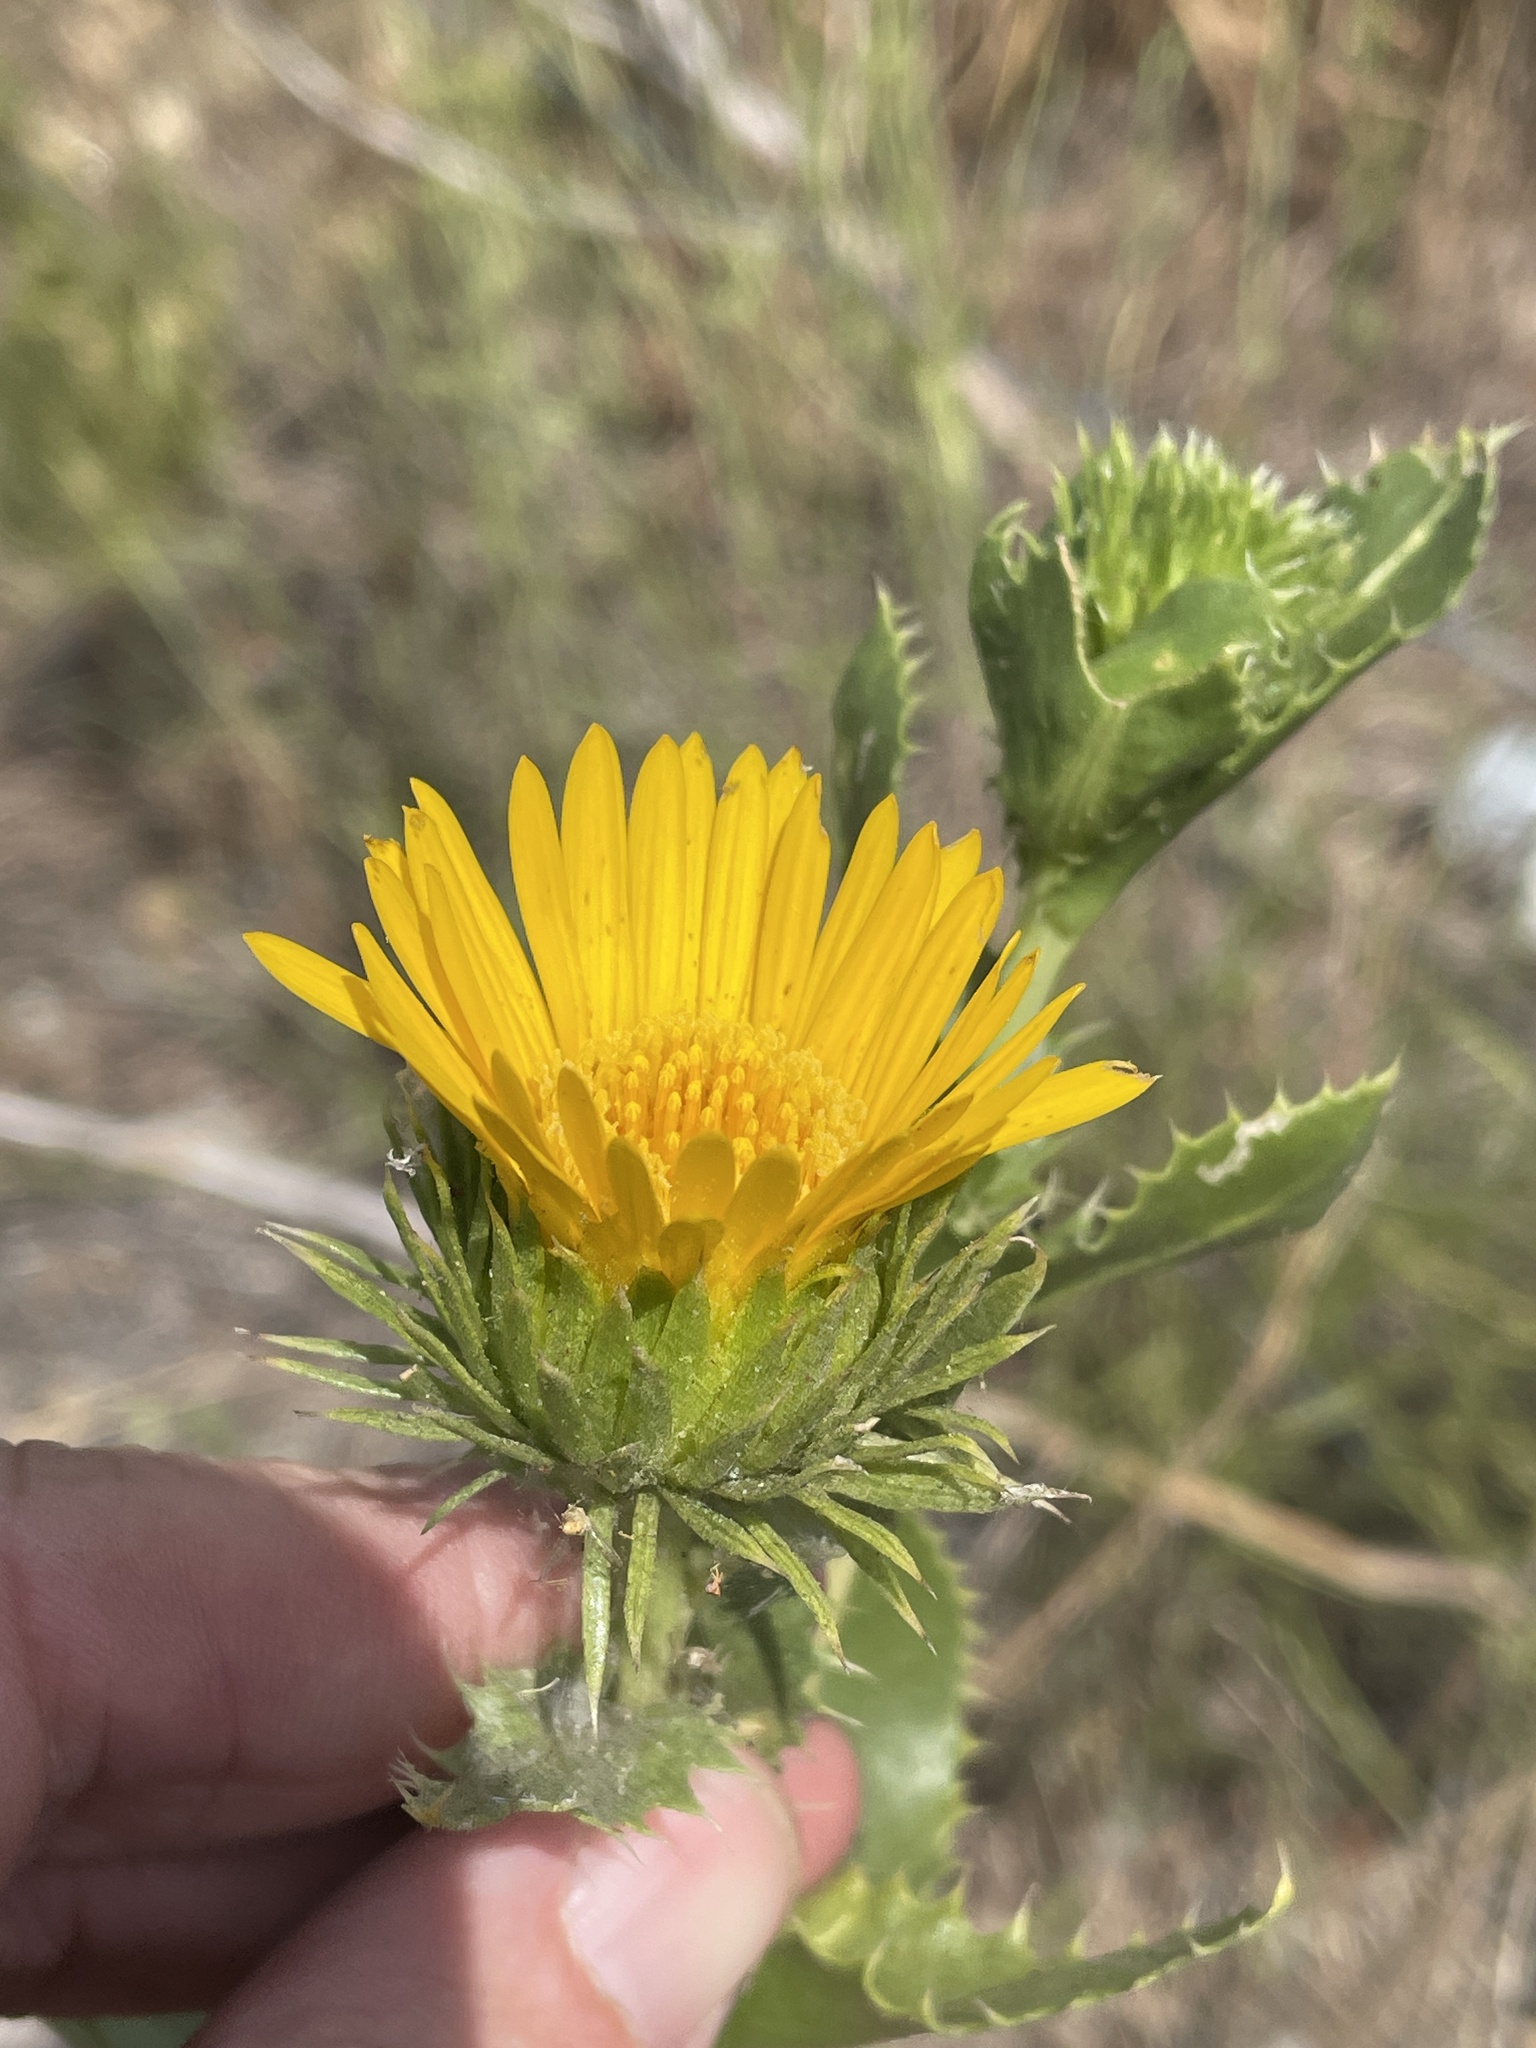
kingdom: Plantae
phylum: Tracheophyta
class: Magnoliopsida
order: Asterales
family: Asteraceae
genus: Grindelia
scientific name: Grindelia ciliata
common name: Goldenweed
